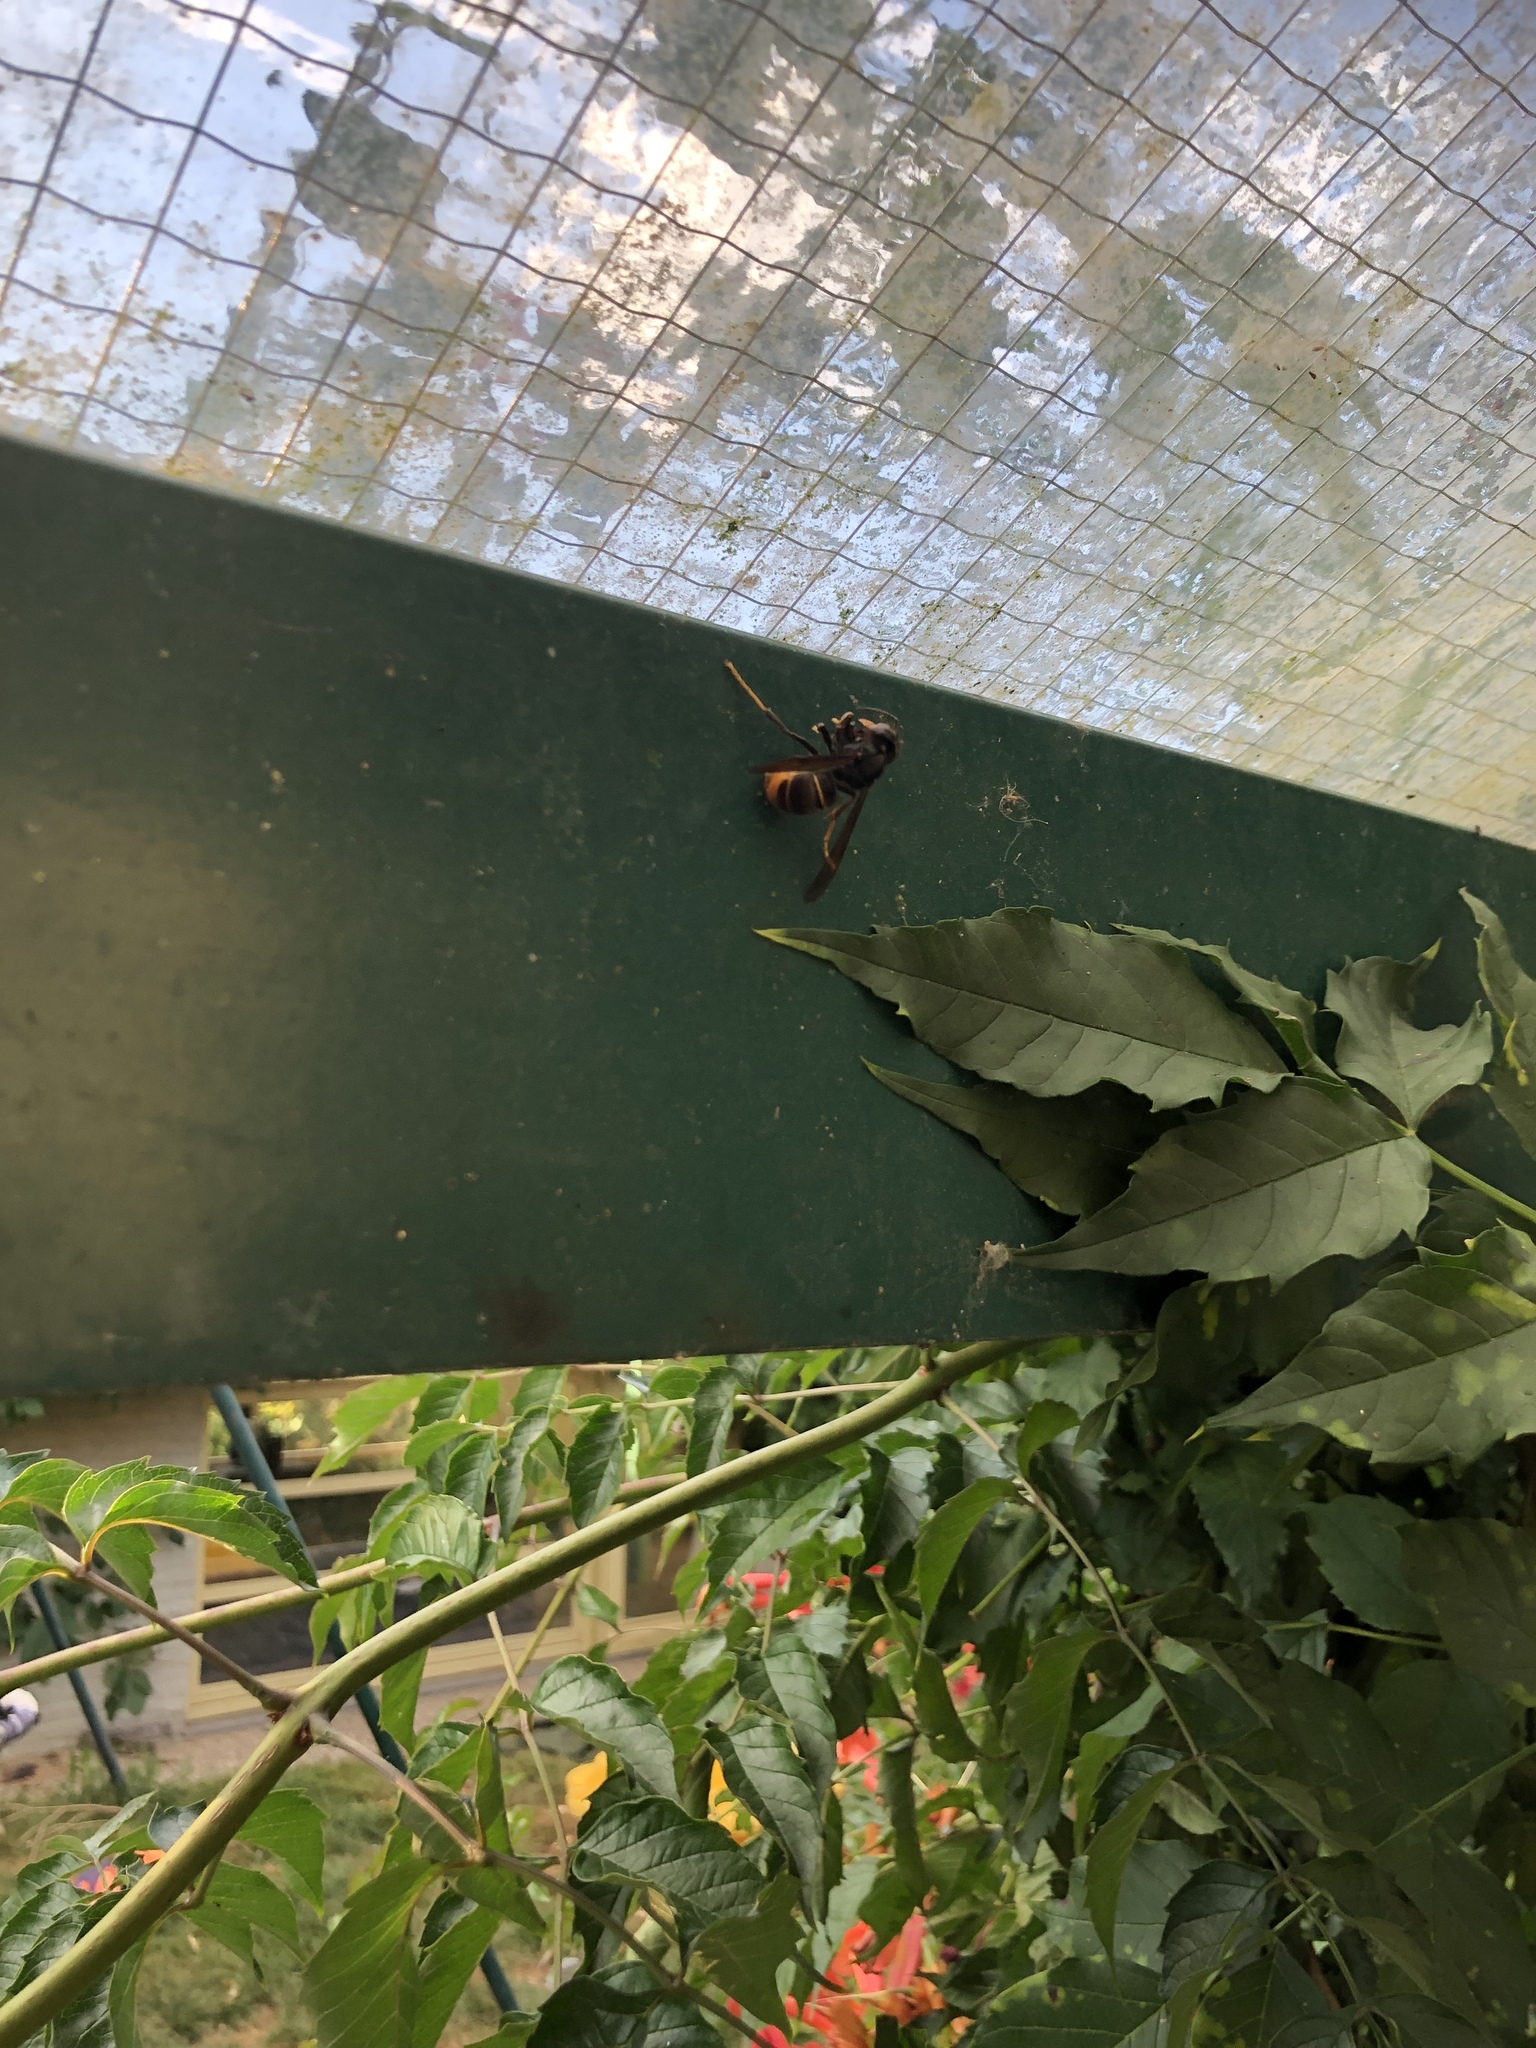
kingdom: Animalia
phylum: Arthropoda
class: Insecta
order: Hymenoptera
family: Vespidae
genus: Vespa
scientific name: Vespa velutina
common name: Asian hornet
